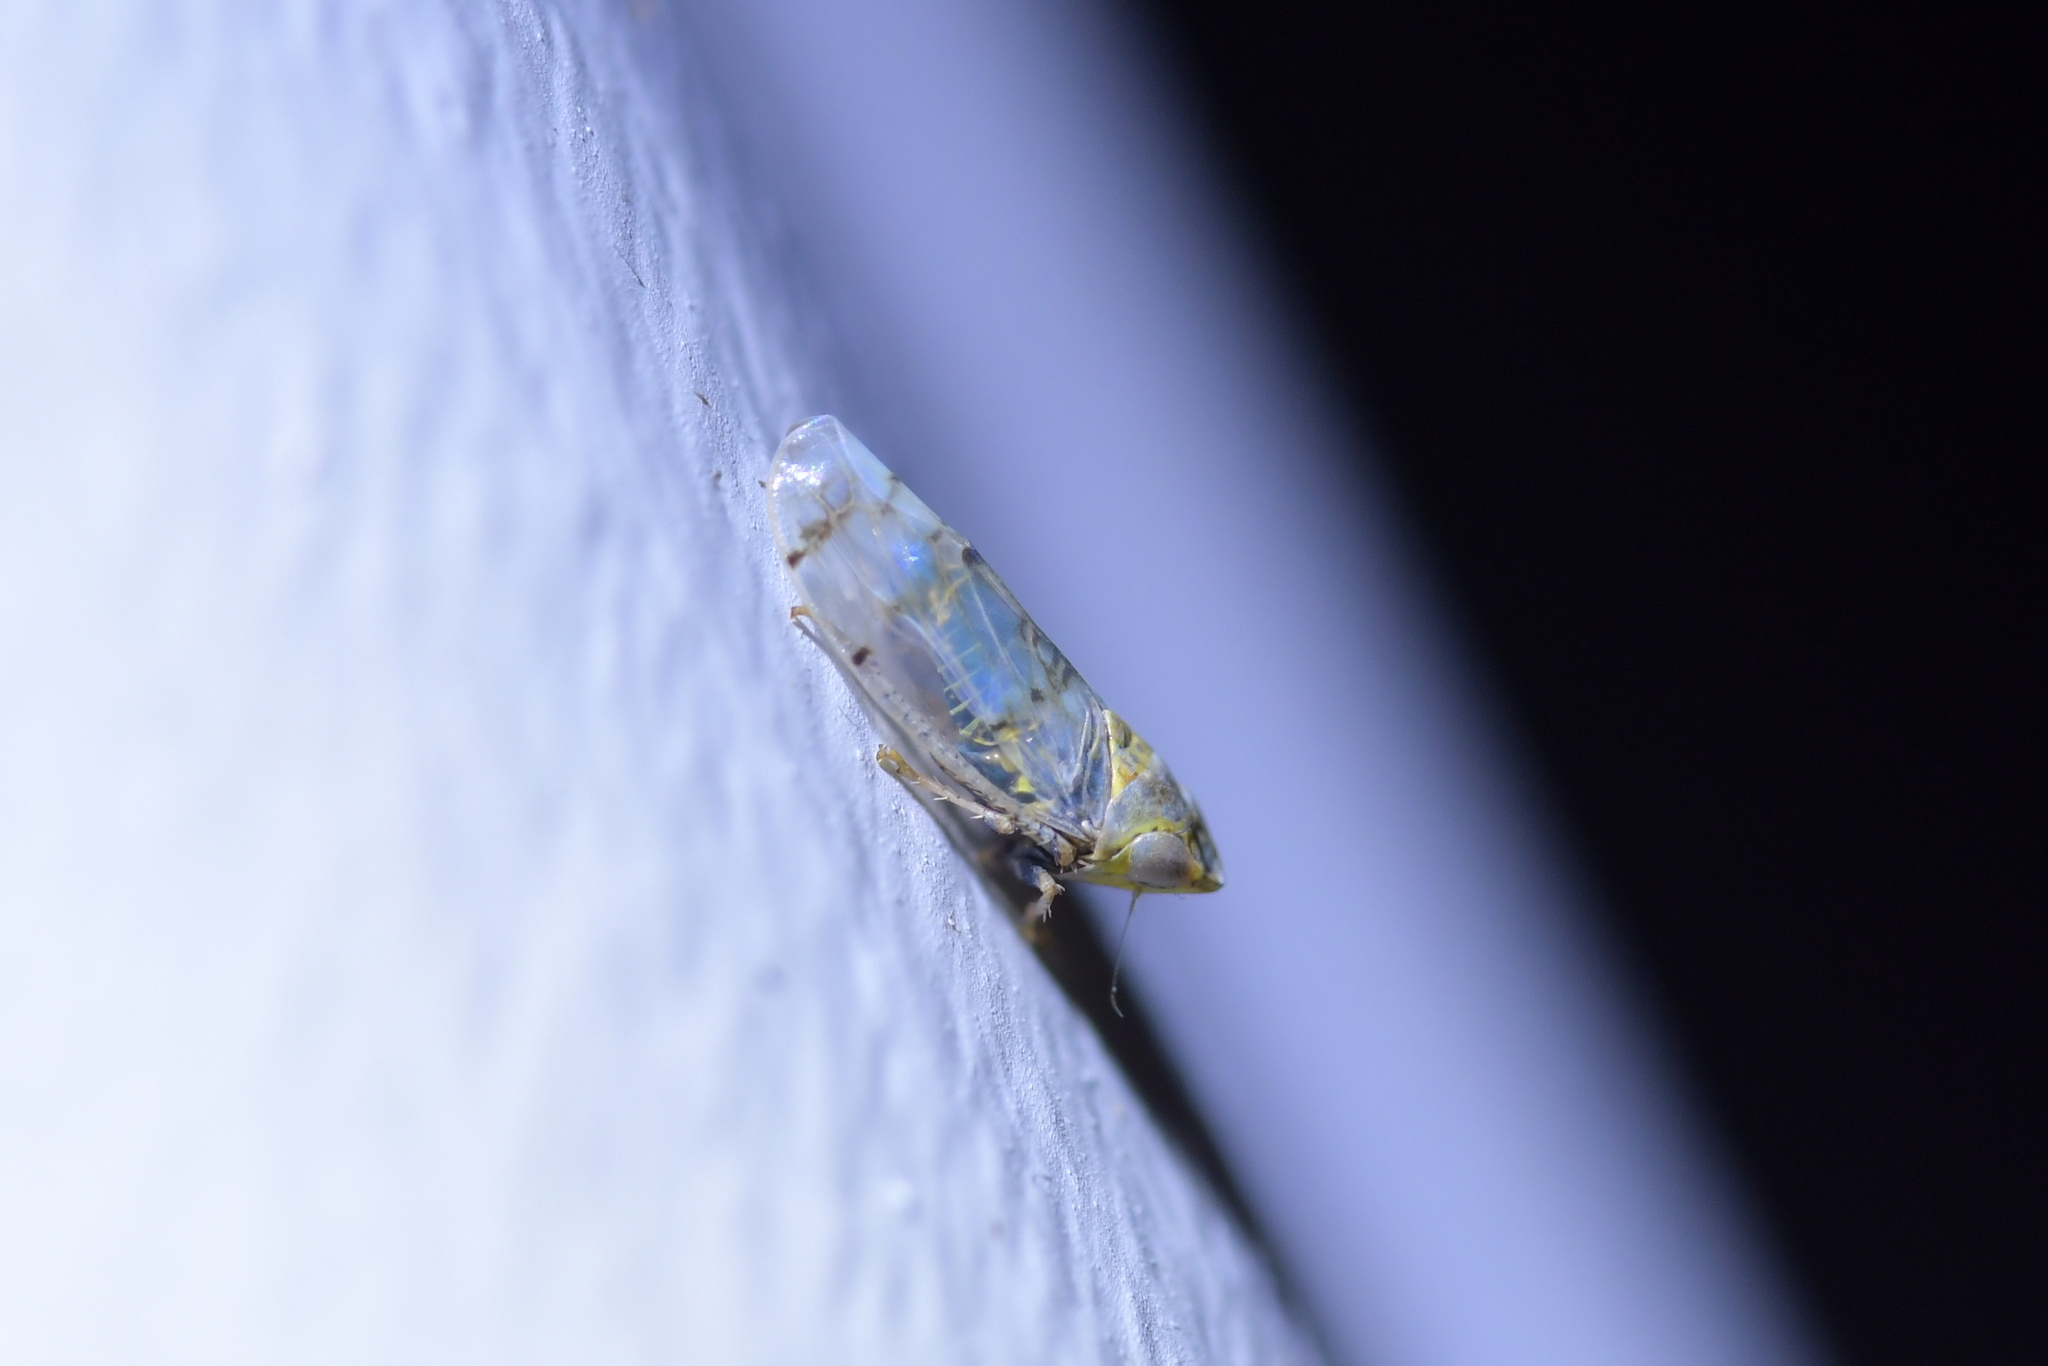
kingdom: Animalia
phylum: Arthropoda
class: Insecta
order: Hemiptera
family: Cicadellidae
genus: Japananus
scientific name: Japananus hyalinus
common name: The japanese maple leafhopper
